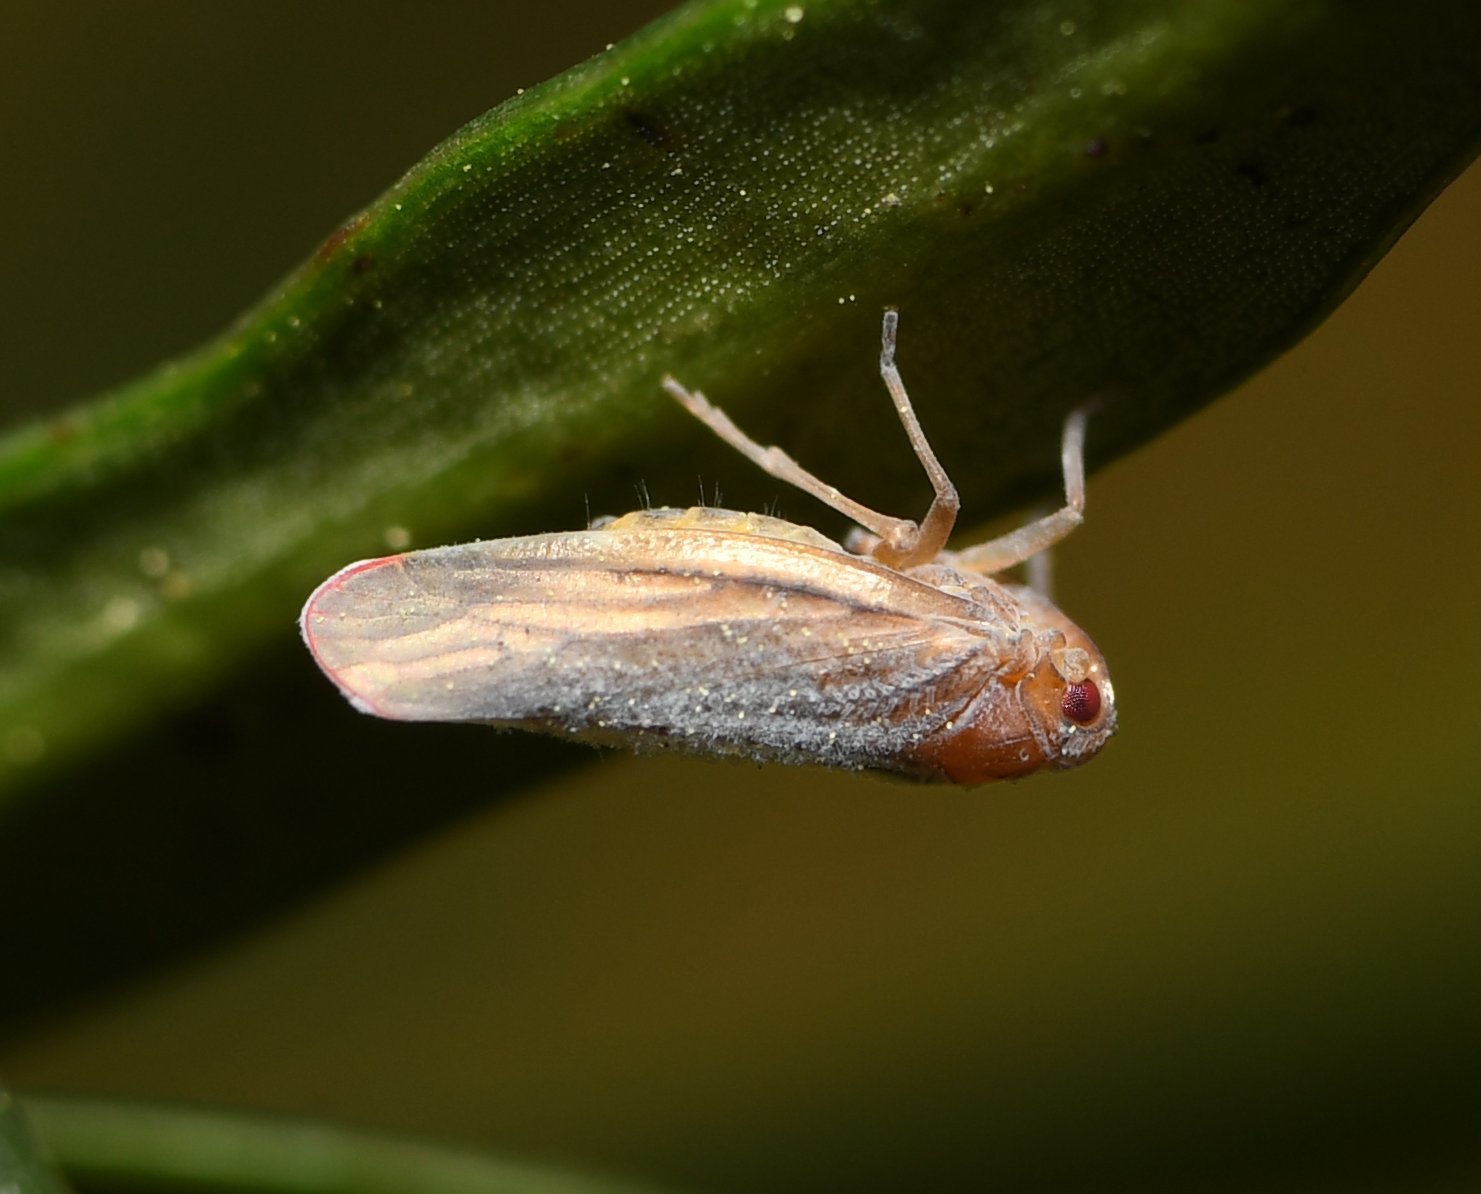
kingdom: Animalia
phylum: Arthropoda
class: Insecta
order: Hemiptera
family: Derbidae
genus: Omolicna
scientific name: Omolicna uhleri
